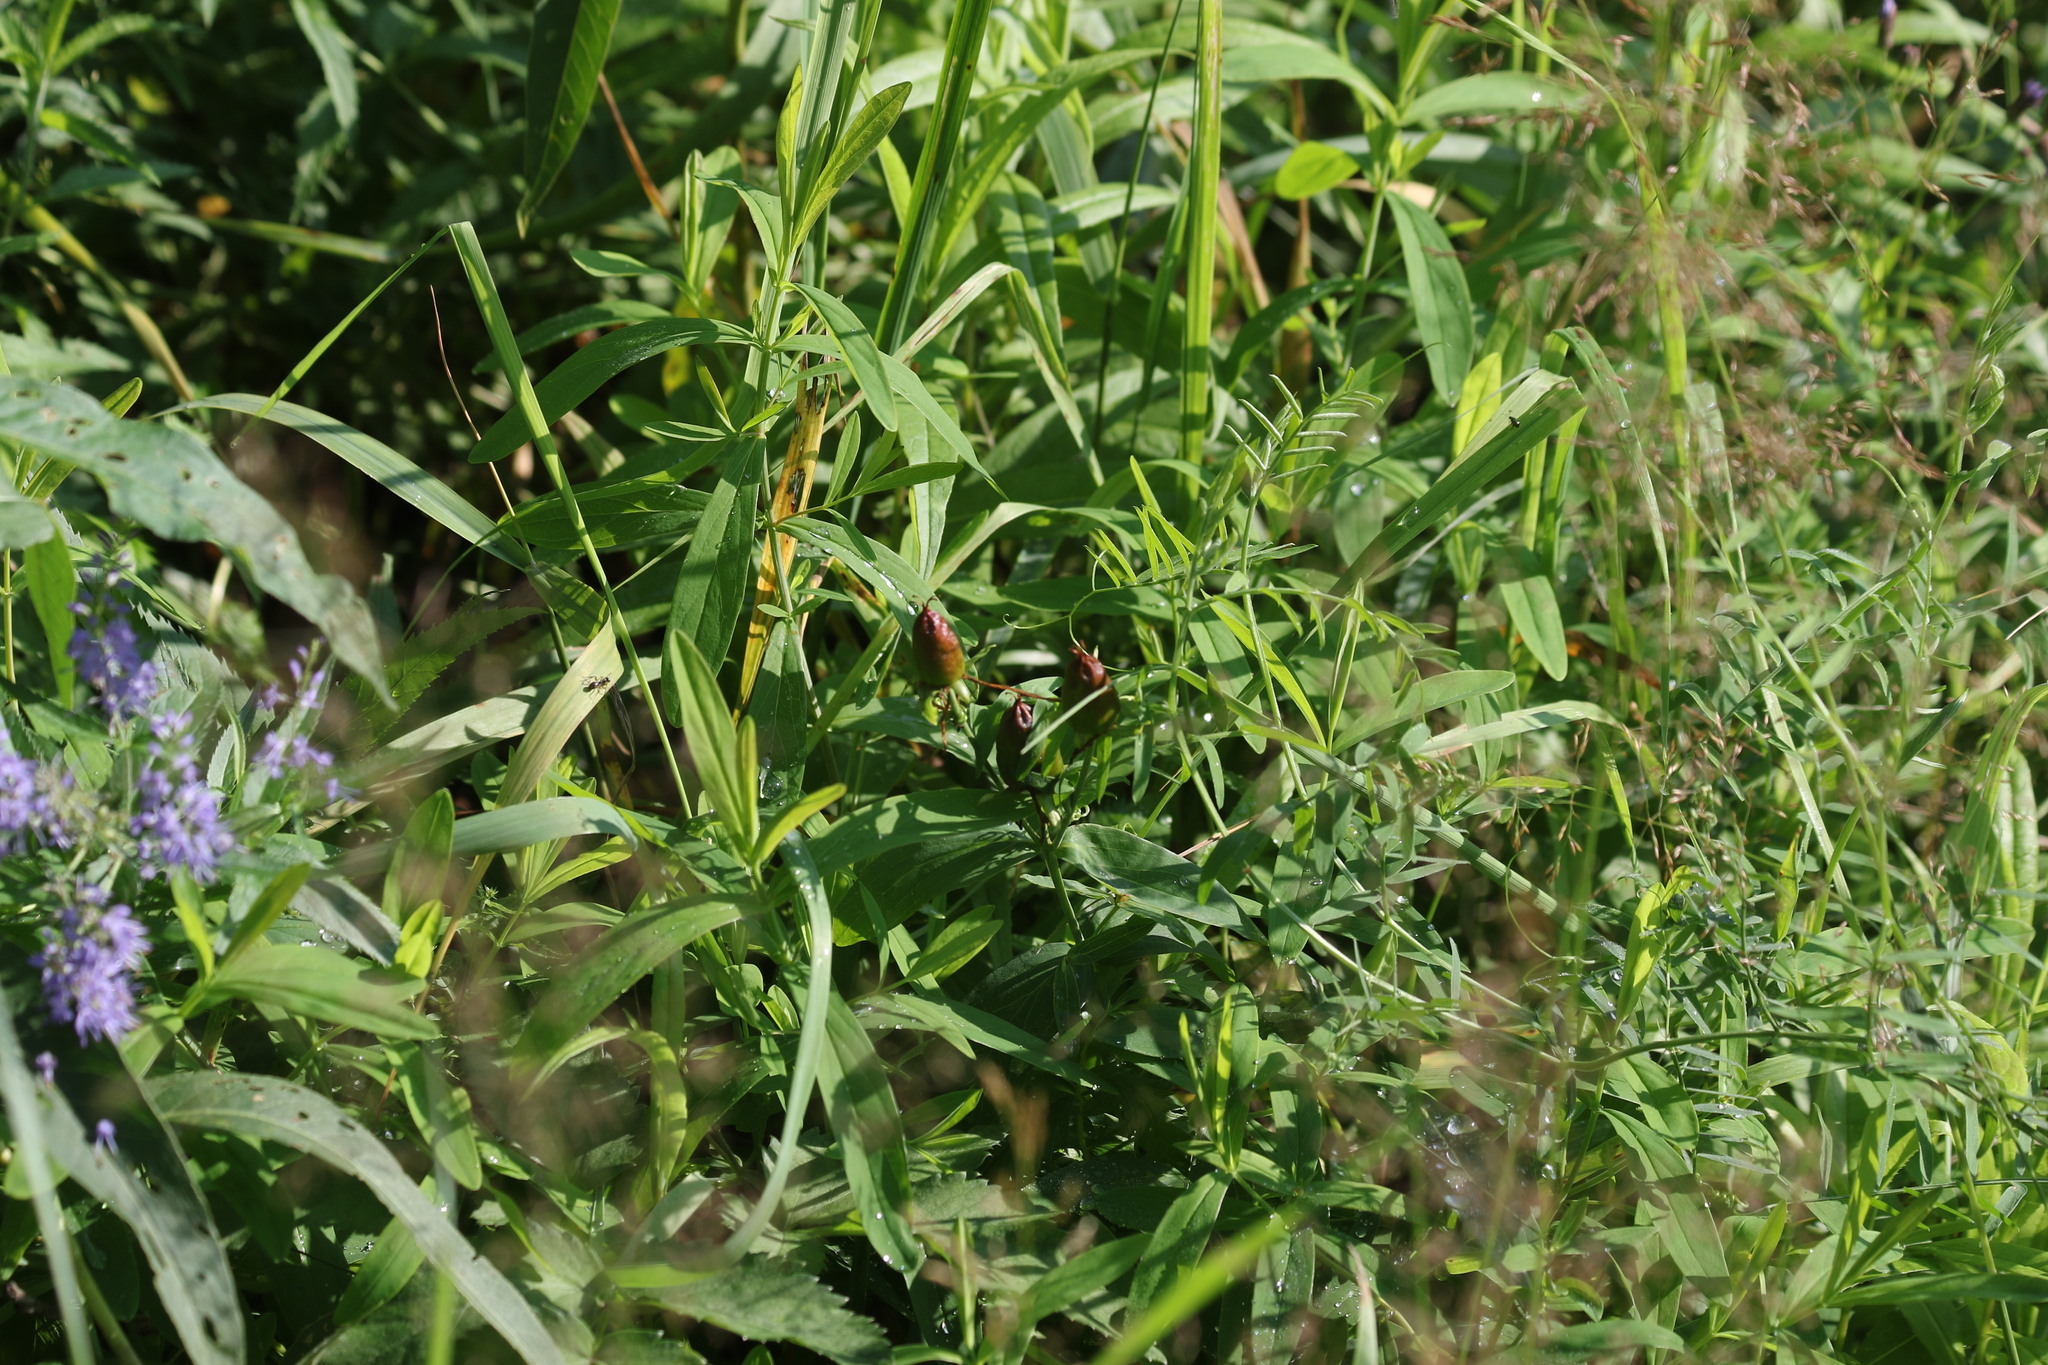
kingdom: Plantae
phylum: Tracheophyta
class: Magnoliopsida
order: Malpighiales
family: Hypericaceae
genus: Hypericum
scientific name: Hypericum ascyron
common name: Giant st. john's-wort
